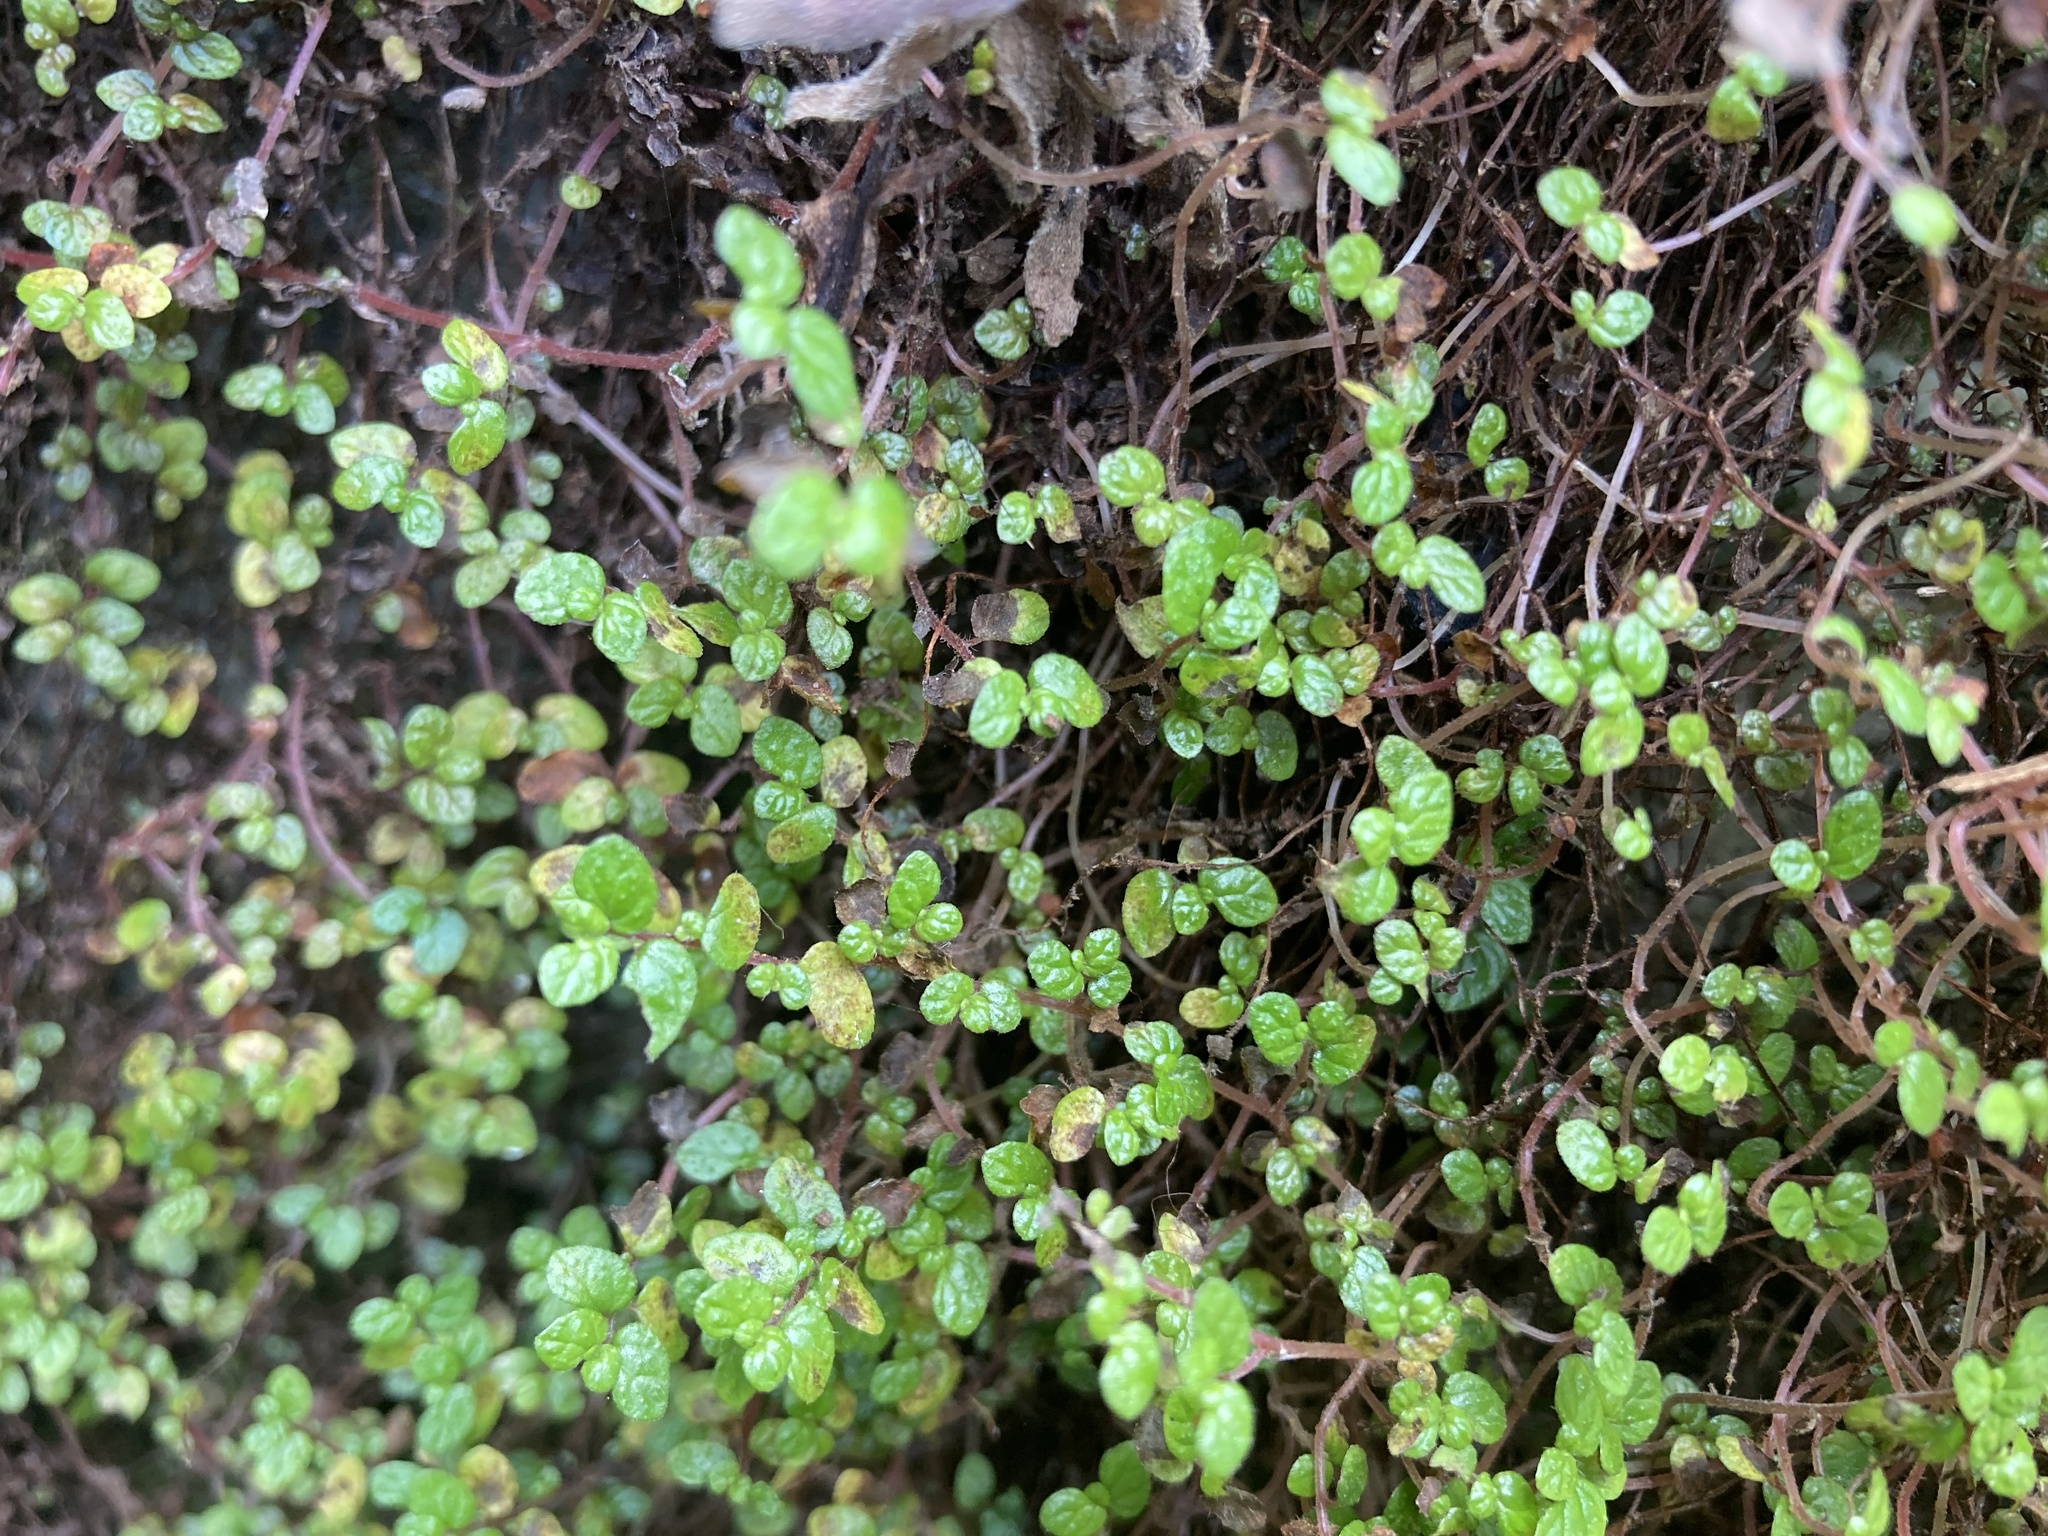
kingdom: Plantae
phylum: Tracheophyta
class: Magnoliopsida
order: Rosales
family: Urticaceae
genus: Soleirolia
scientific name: Soleirolia soleirolii
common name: Mind-your-own-business
